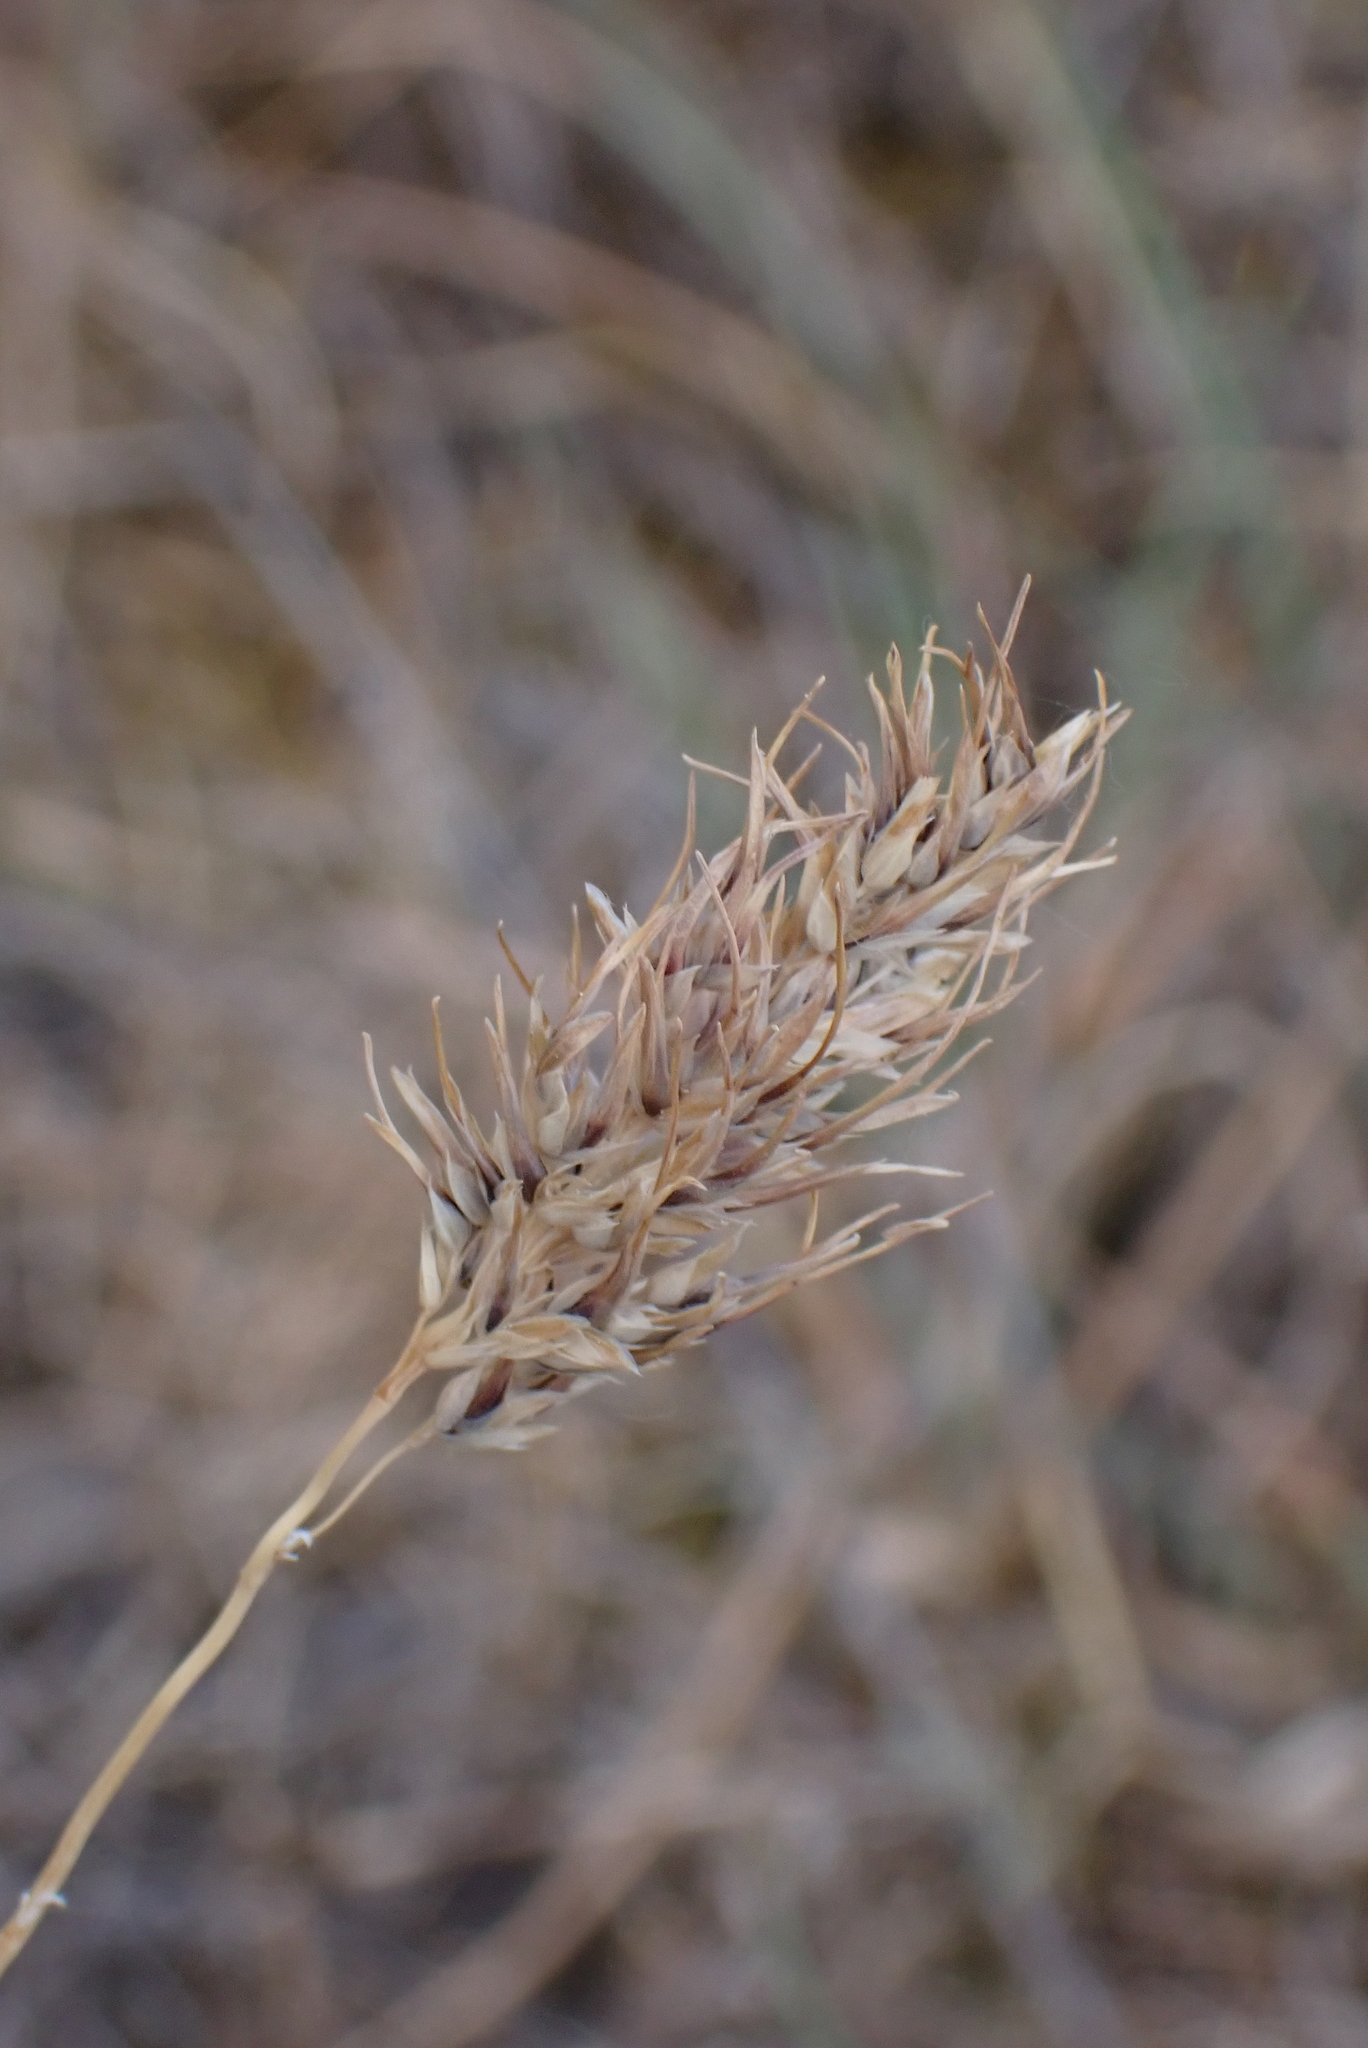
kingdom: Plantae
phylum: Tracheophyta
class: Liliopsida
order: Poales
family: Poaceae
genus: Poa
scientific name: Poa bulbosa
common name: Bulbous bluegrass
